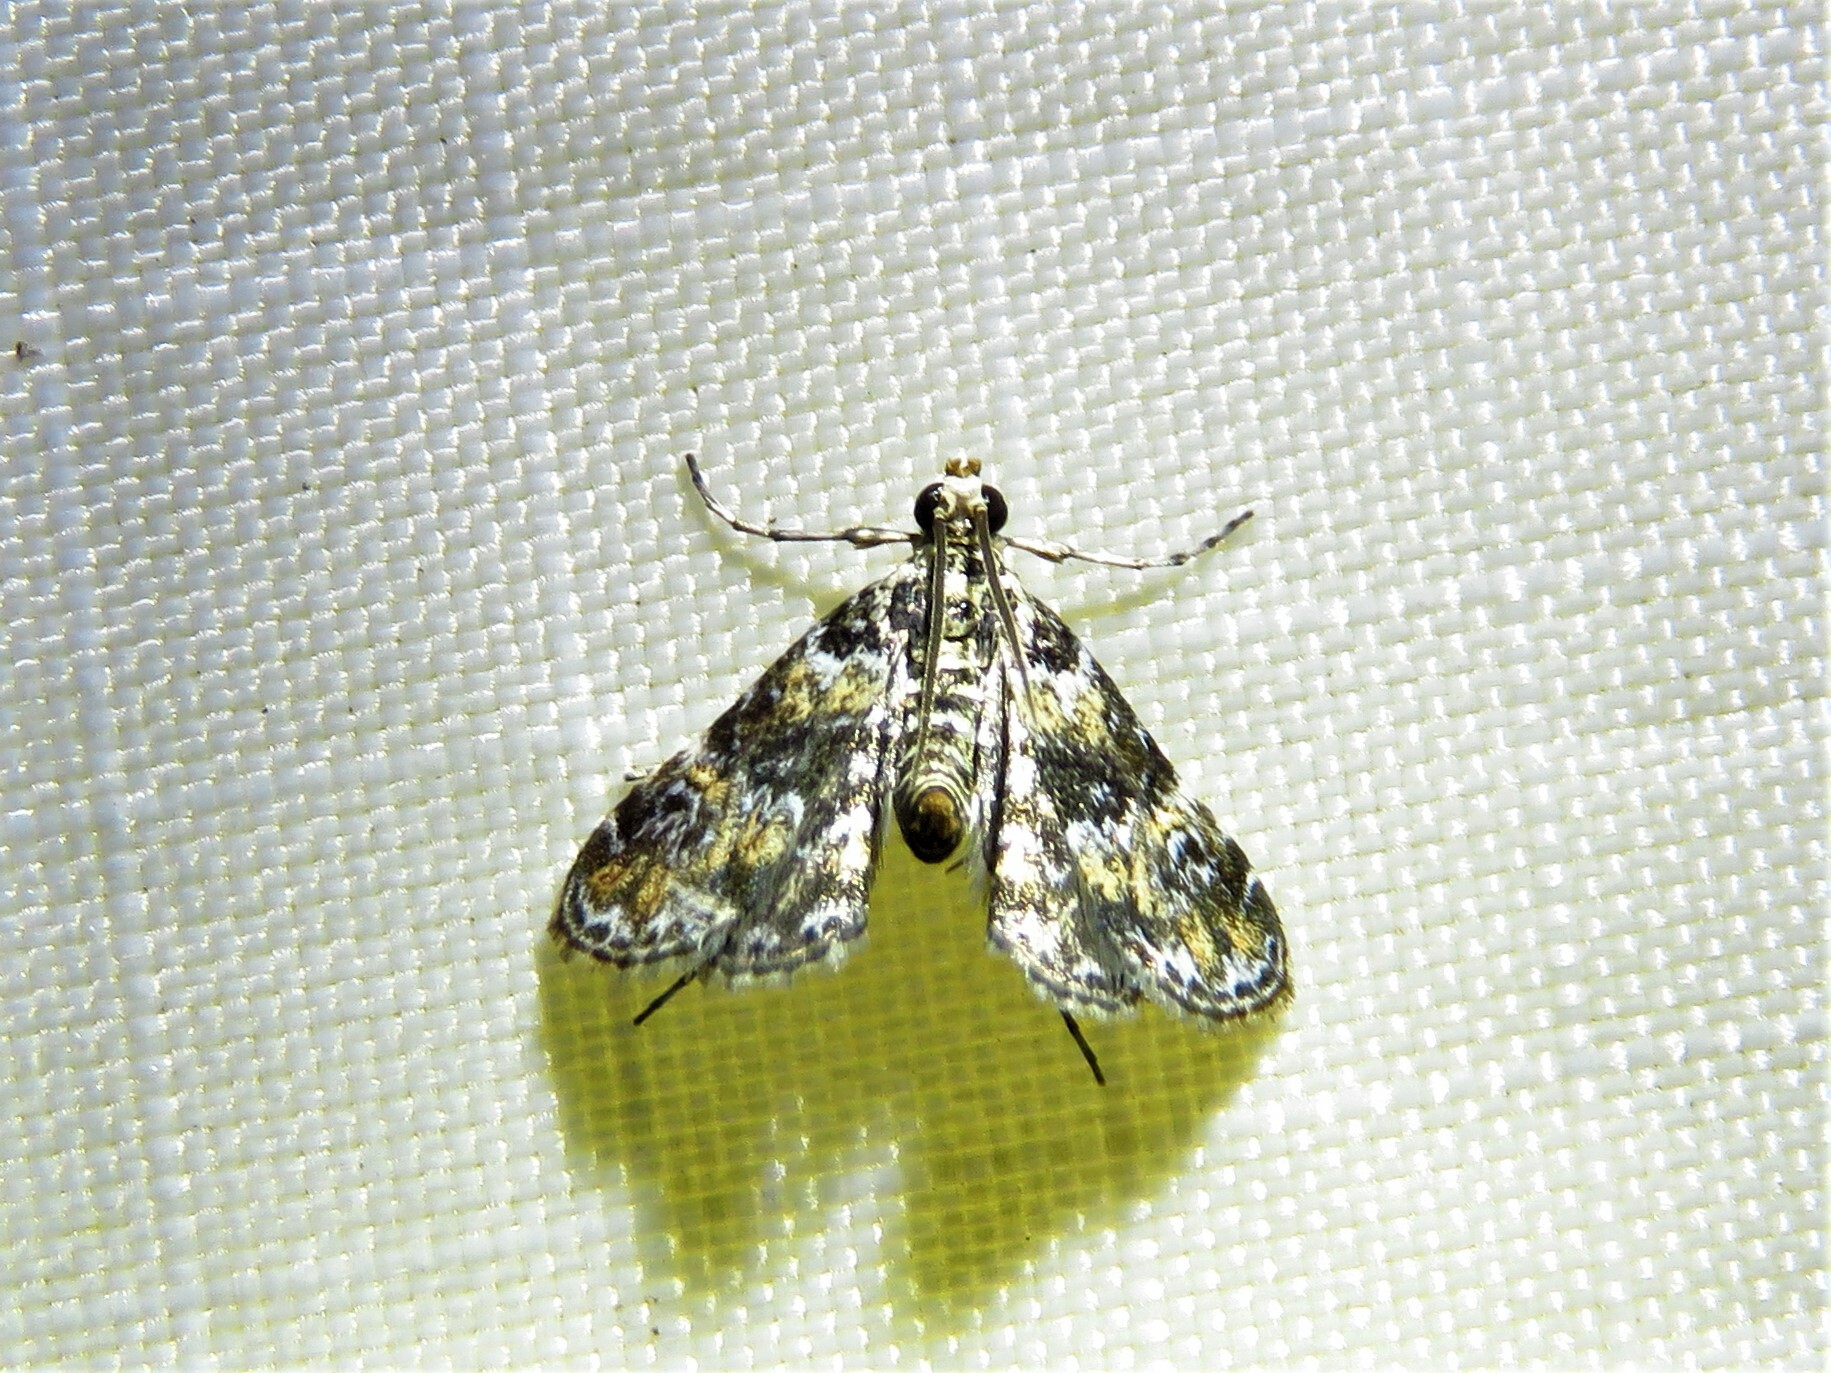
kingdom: Animalia
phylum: Arthropoda
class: Insecta
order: Lepidoptera
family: Crambidae
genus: Elophila
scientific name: Elophila obliteralis
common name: Waterlily leafcutter moth
